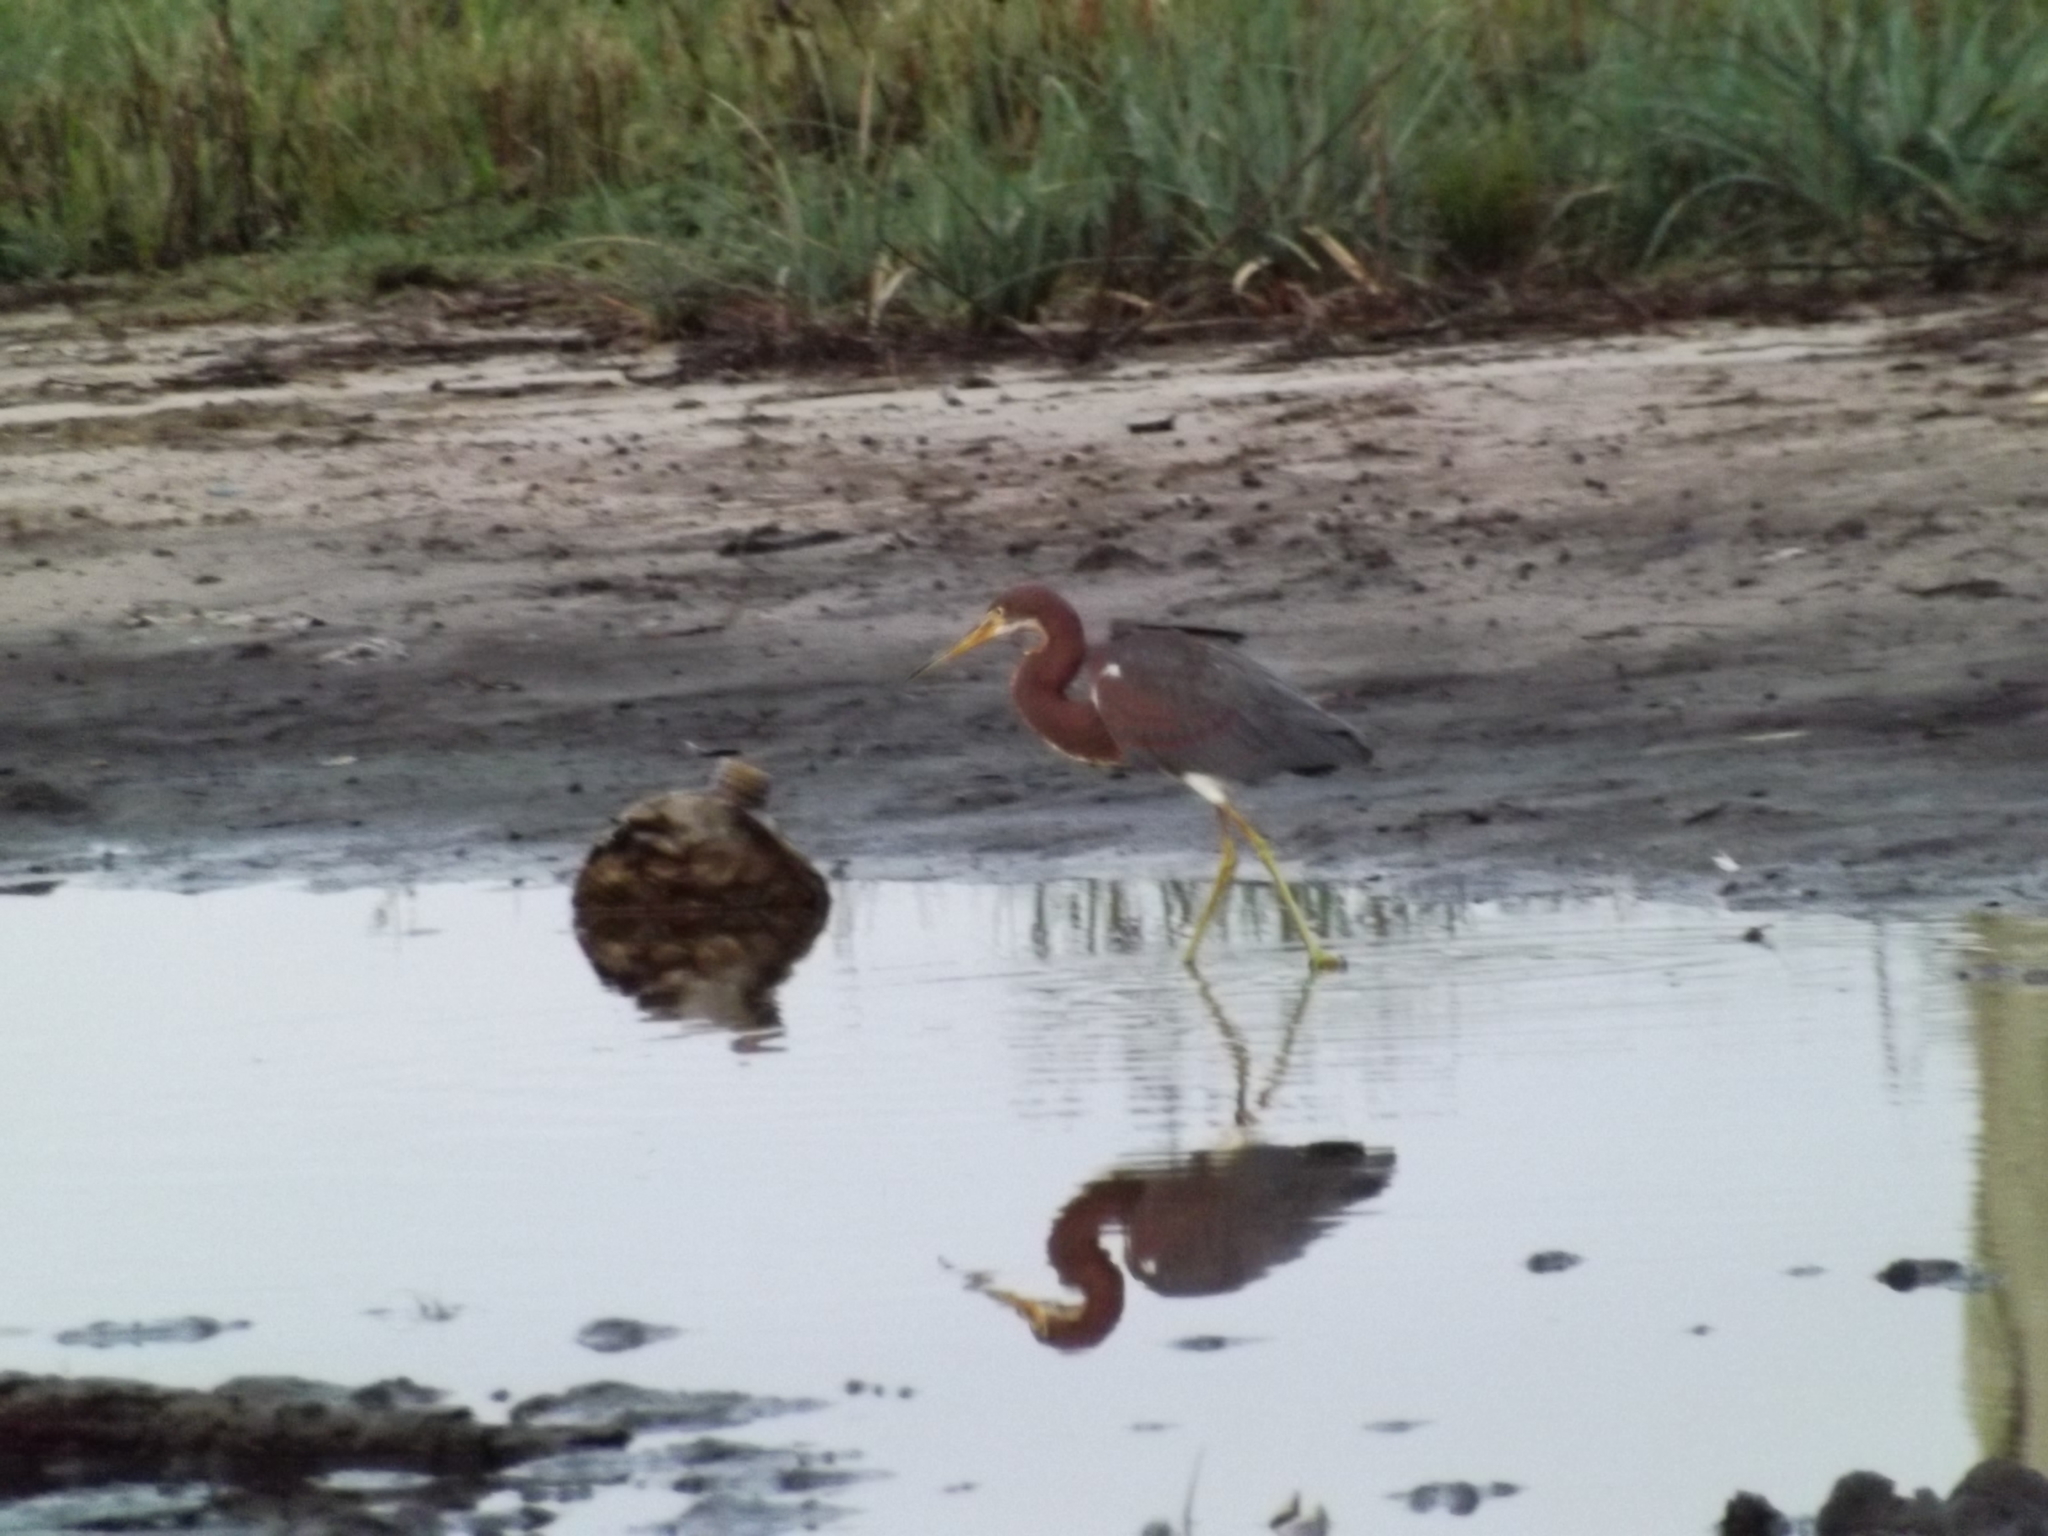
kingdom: Animalia
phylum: Chordata
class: Aves
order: Pelecaniformes
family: Ardeidae
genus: Egretta
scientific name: Egretta tricolor
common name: Tricolored heron
